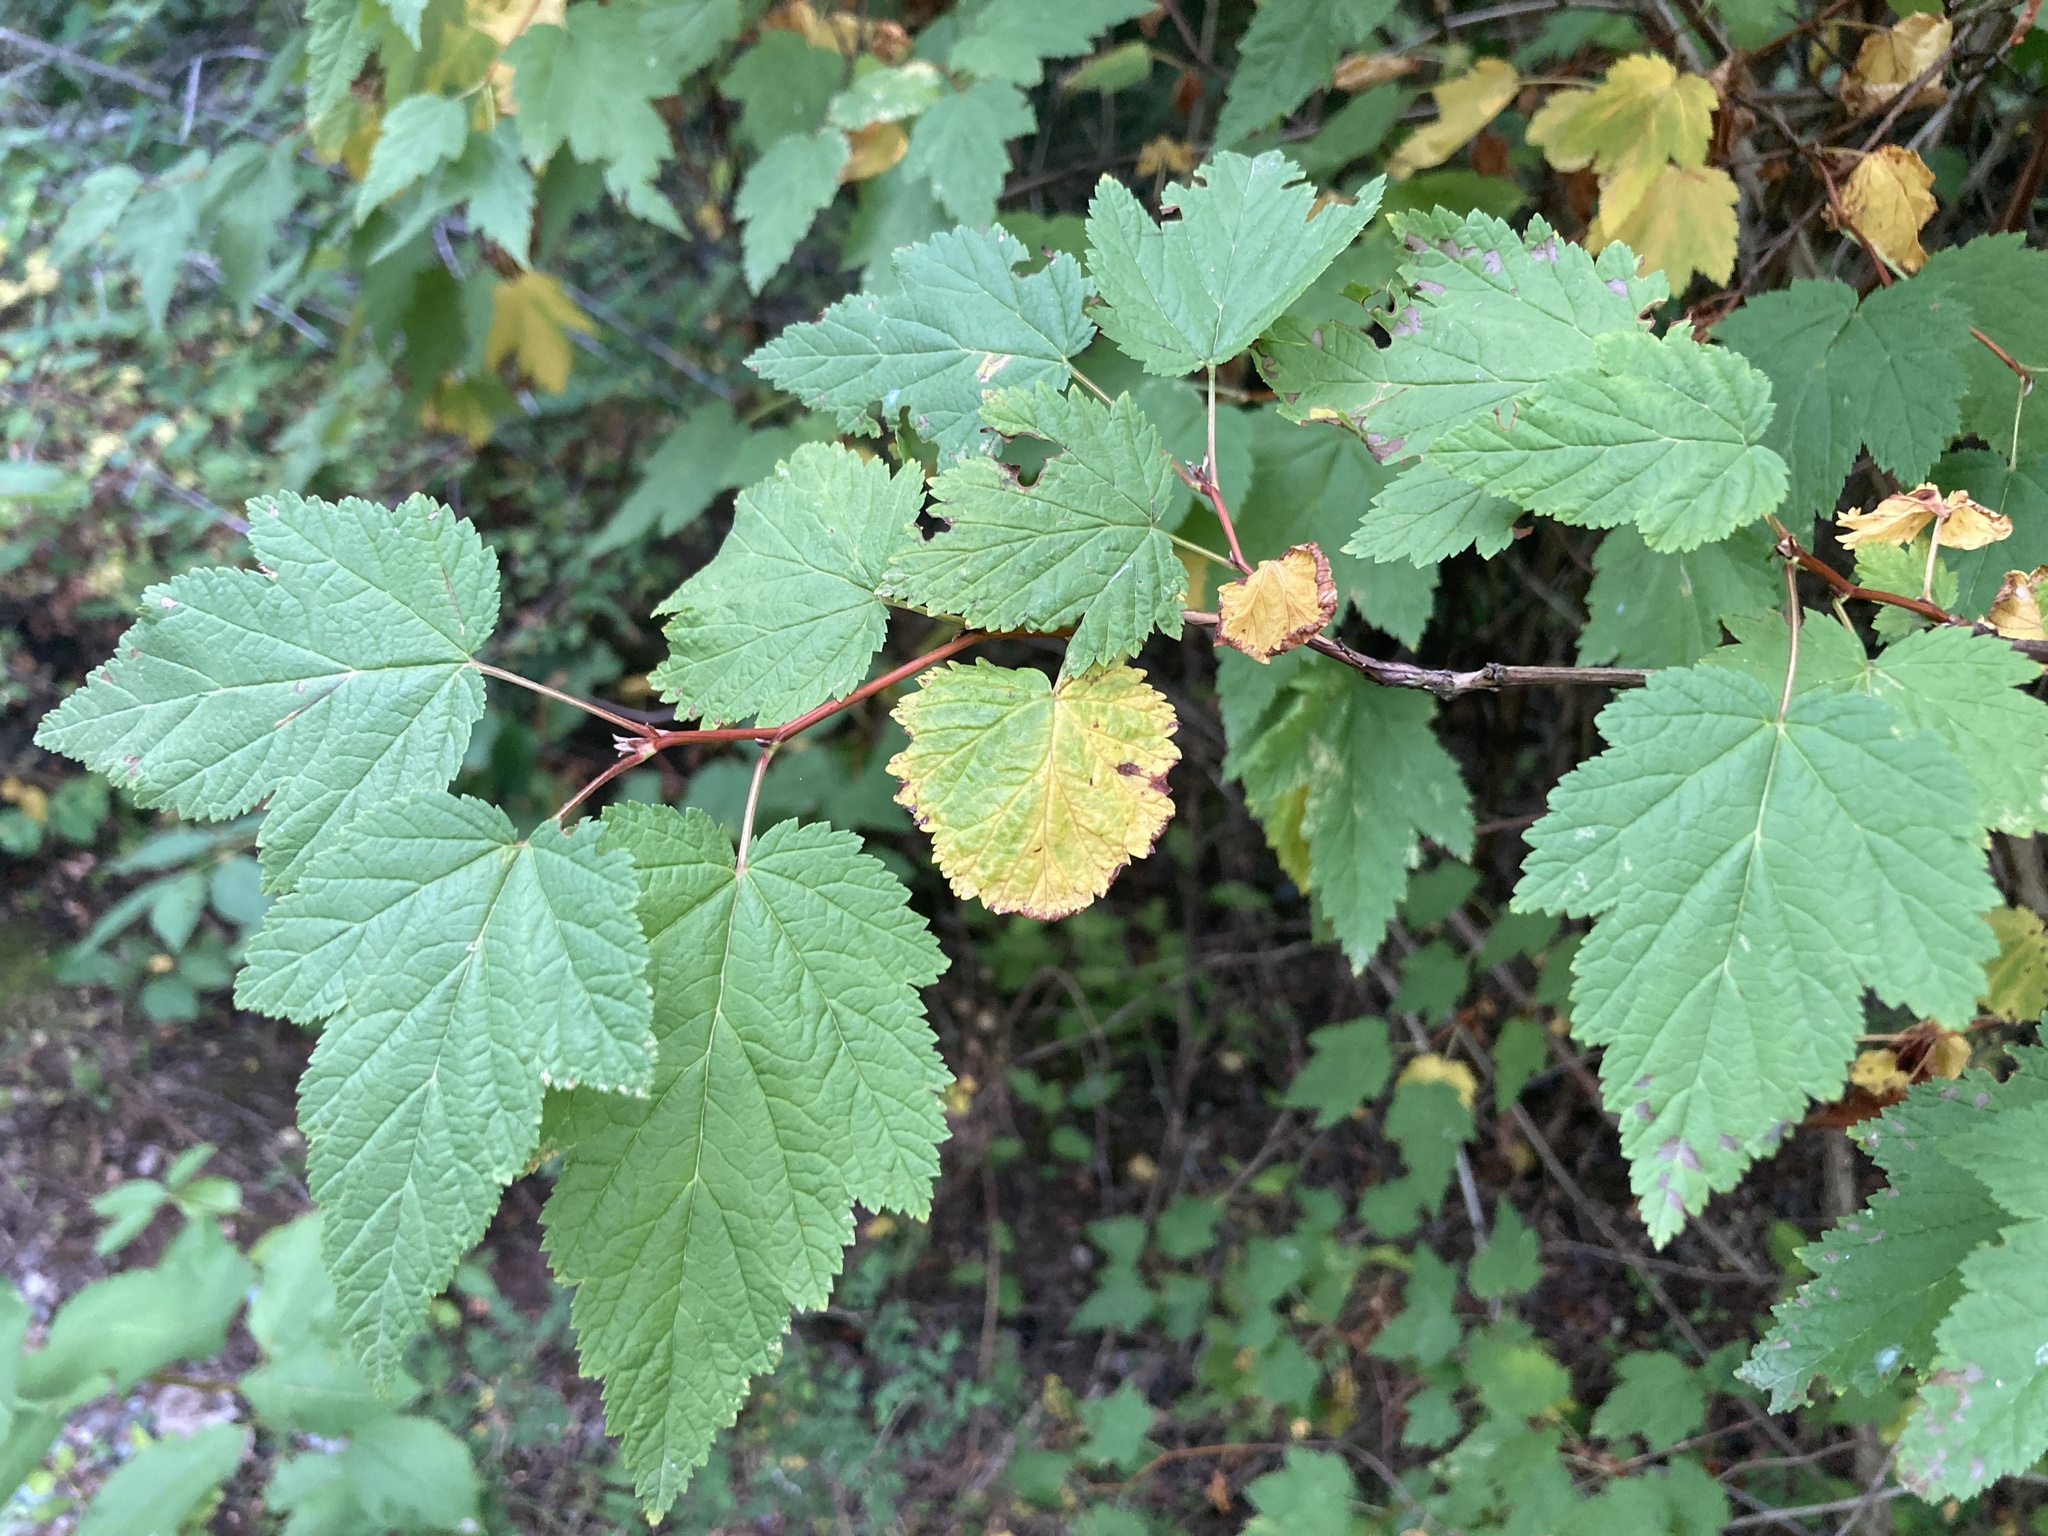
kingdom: Plantae
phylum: Tracheophyta
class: Magnoliopsida
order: Rosales
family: Rosaceae
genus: Physocarpus
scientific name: Physocarpus capitatus
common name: Pacific ninebark
